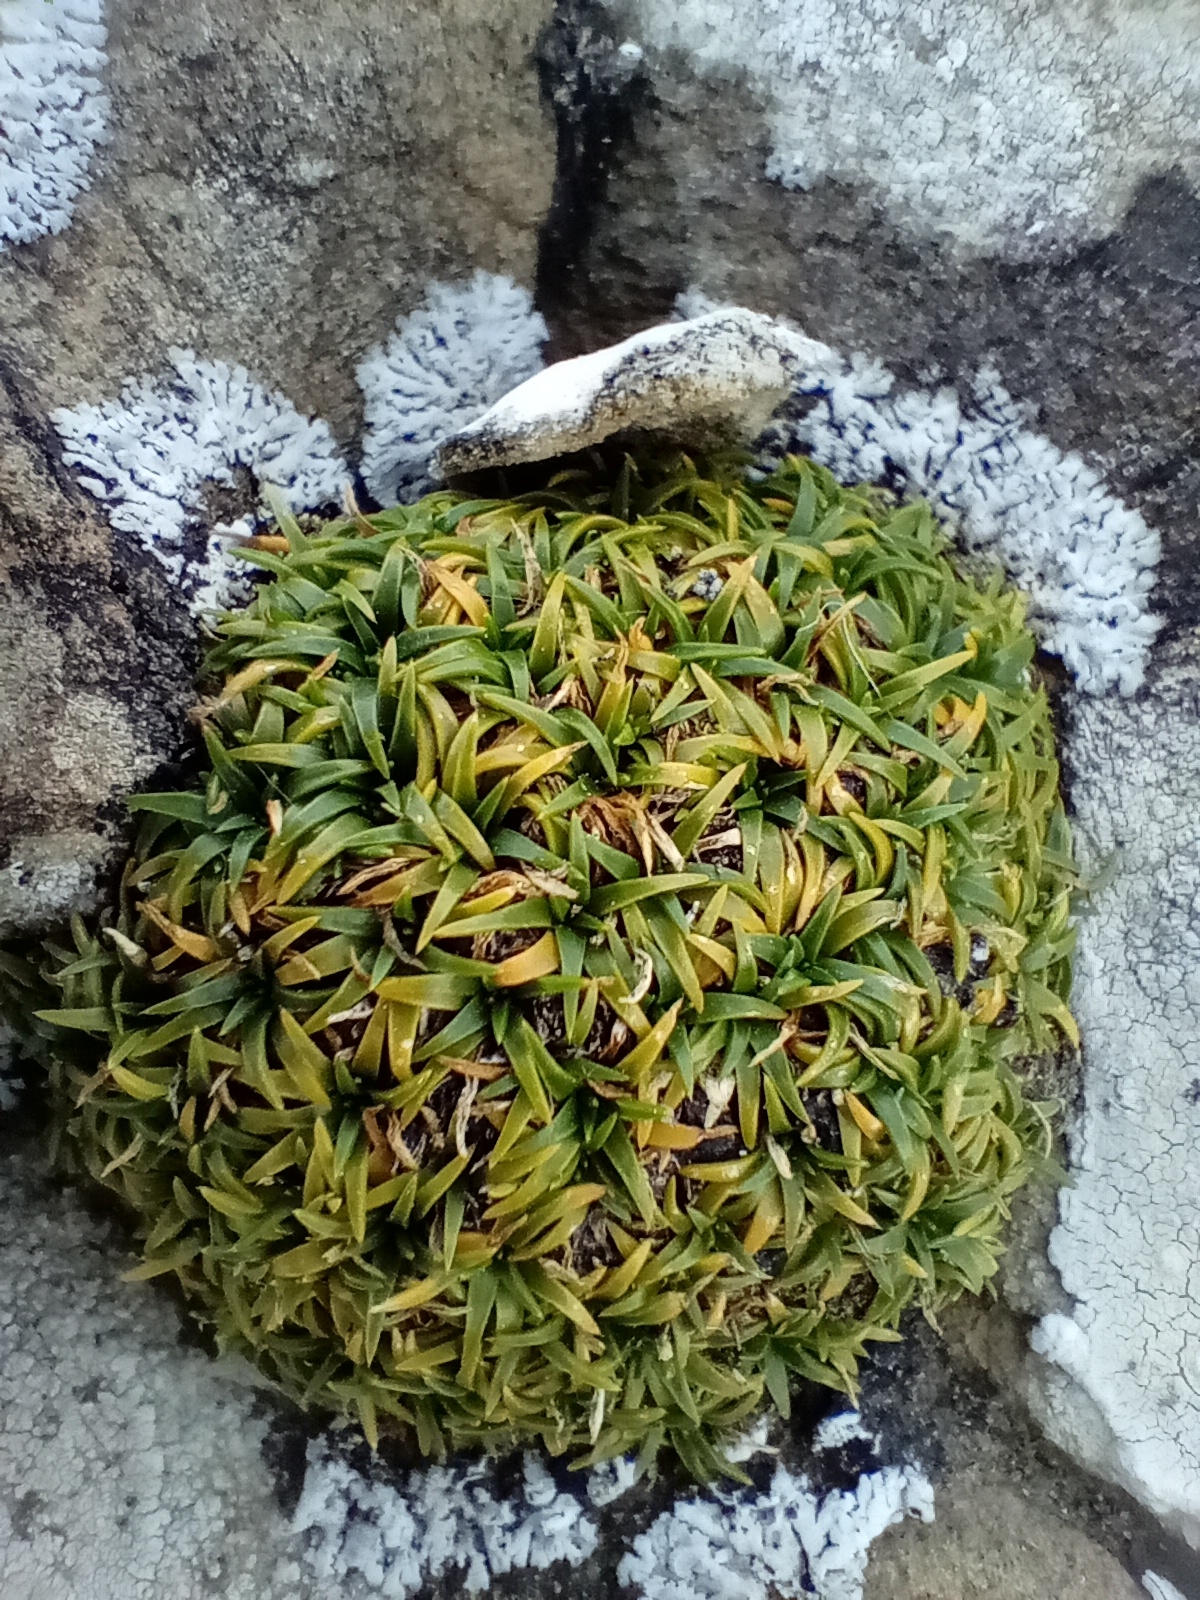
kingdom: Plantae
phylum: Tracheophyta
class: Magnoliopsida
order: Caryophyllales
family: Caryophyllaceae
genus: Colobanthus
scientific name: Colobanthus muelleri
